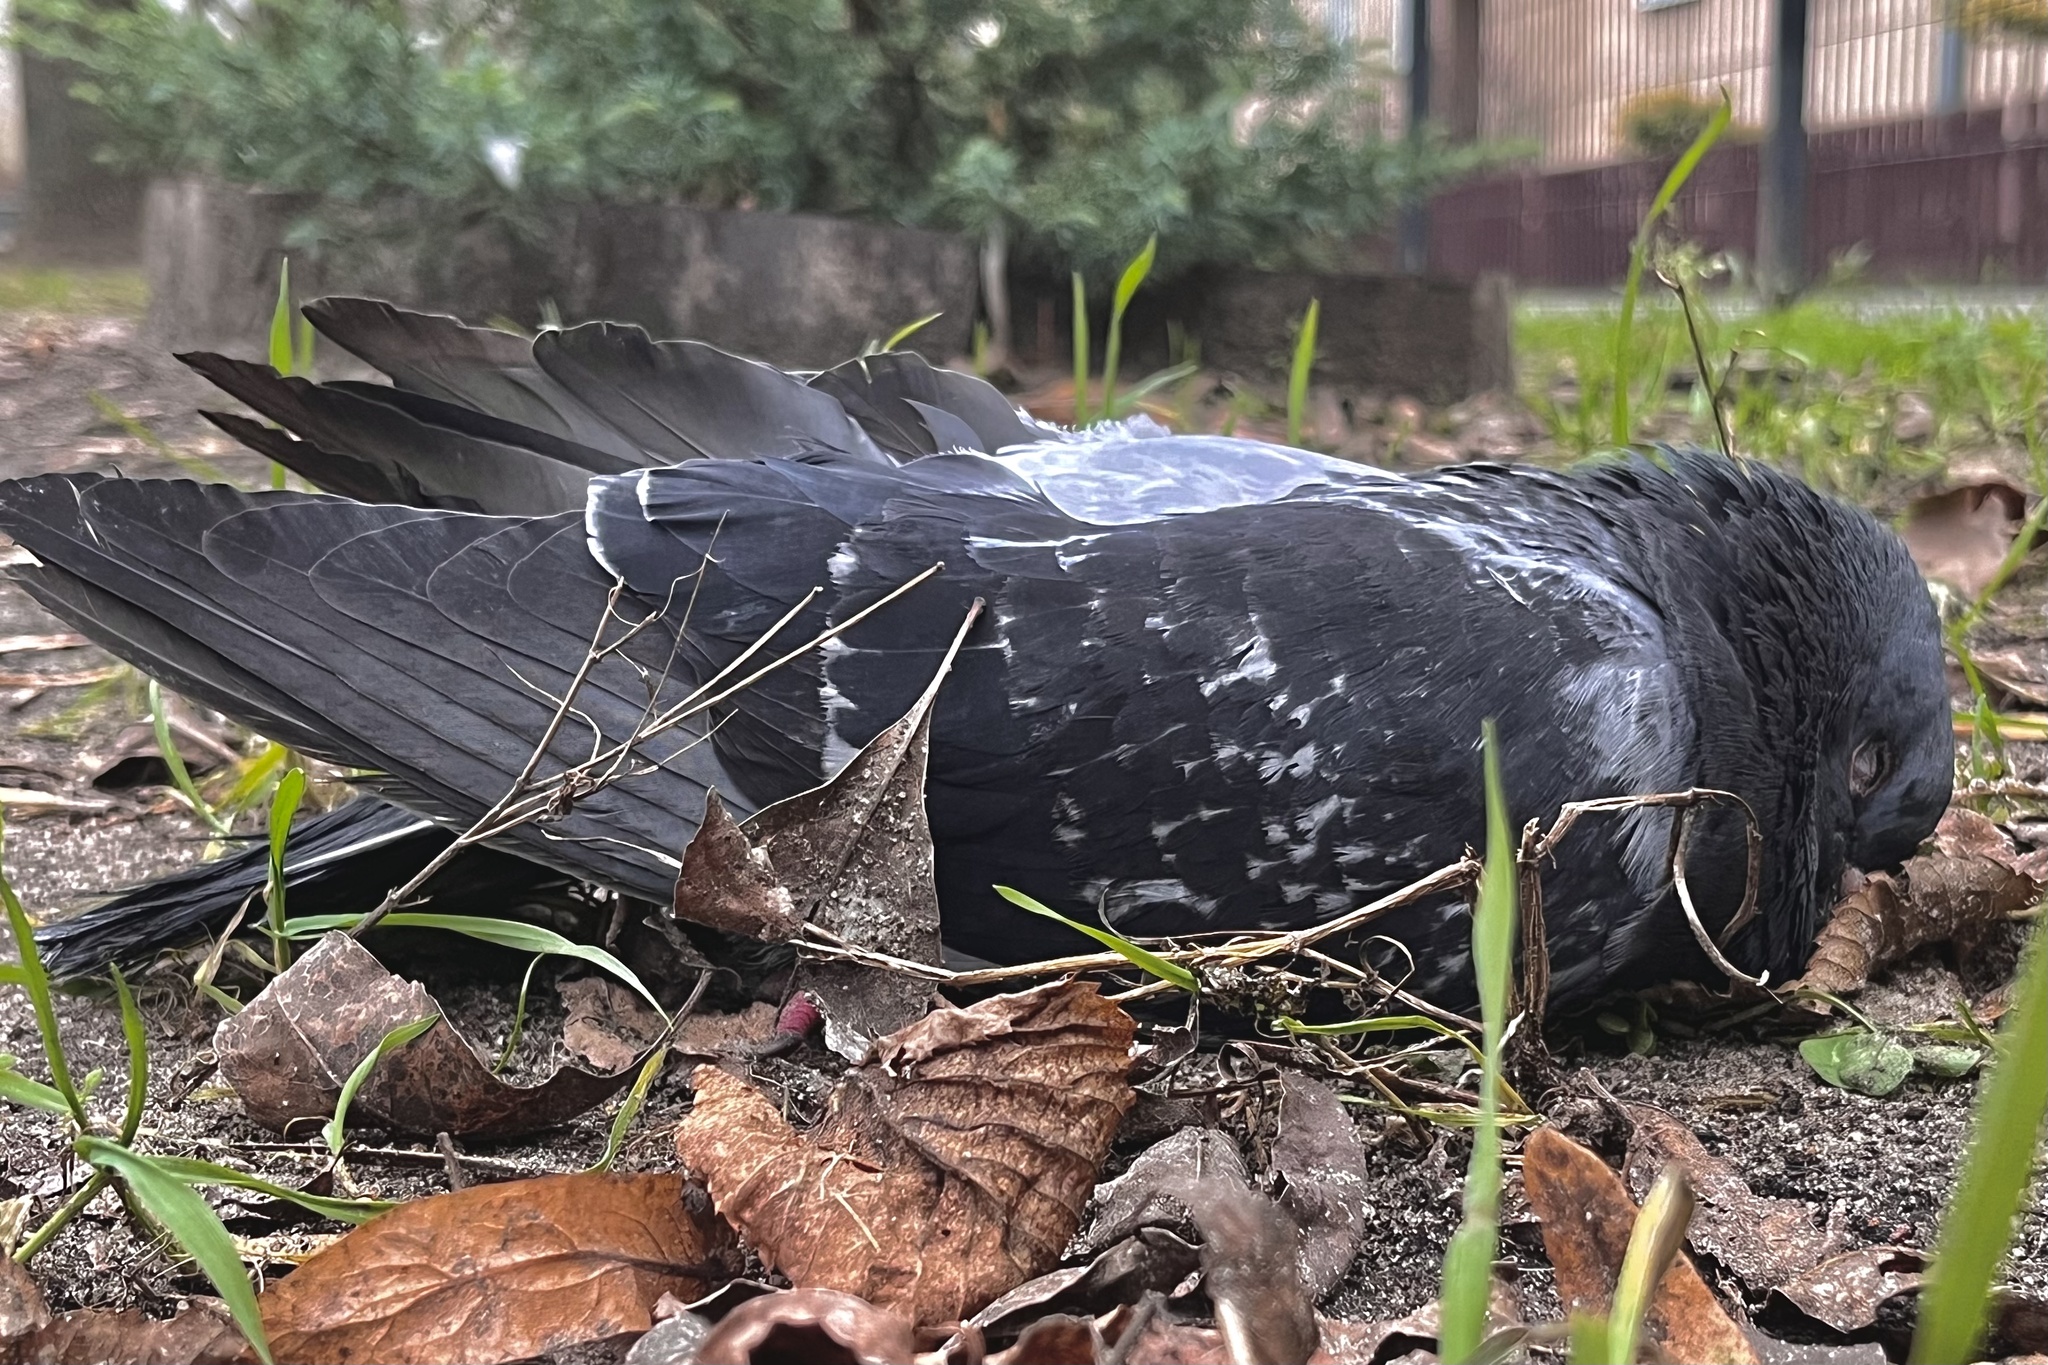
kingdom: Animalia
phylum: Chordata
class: Aves
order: Columbiformes
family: Columbidae
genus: Columba
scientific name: Columba livia
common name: Rock pigeon
